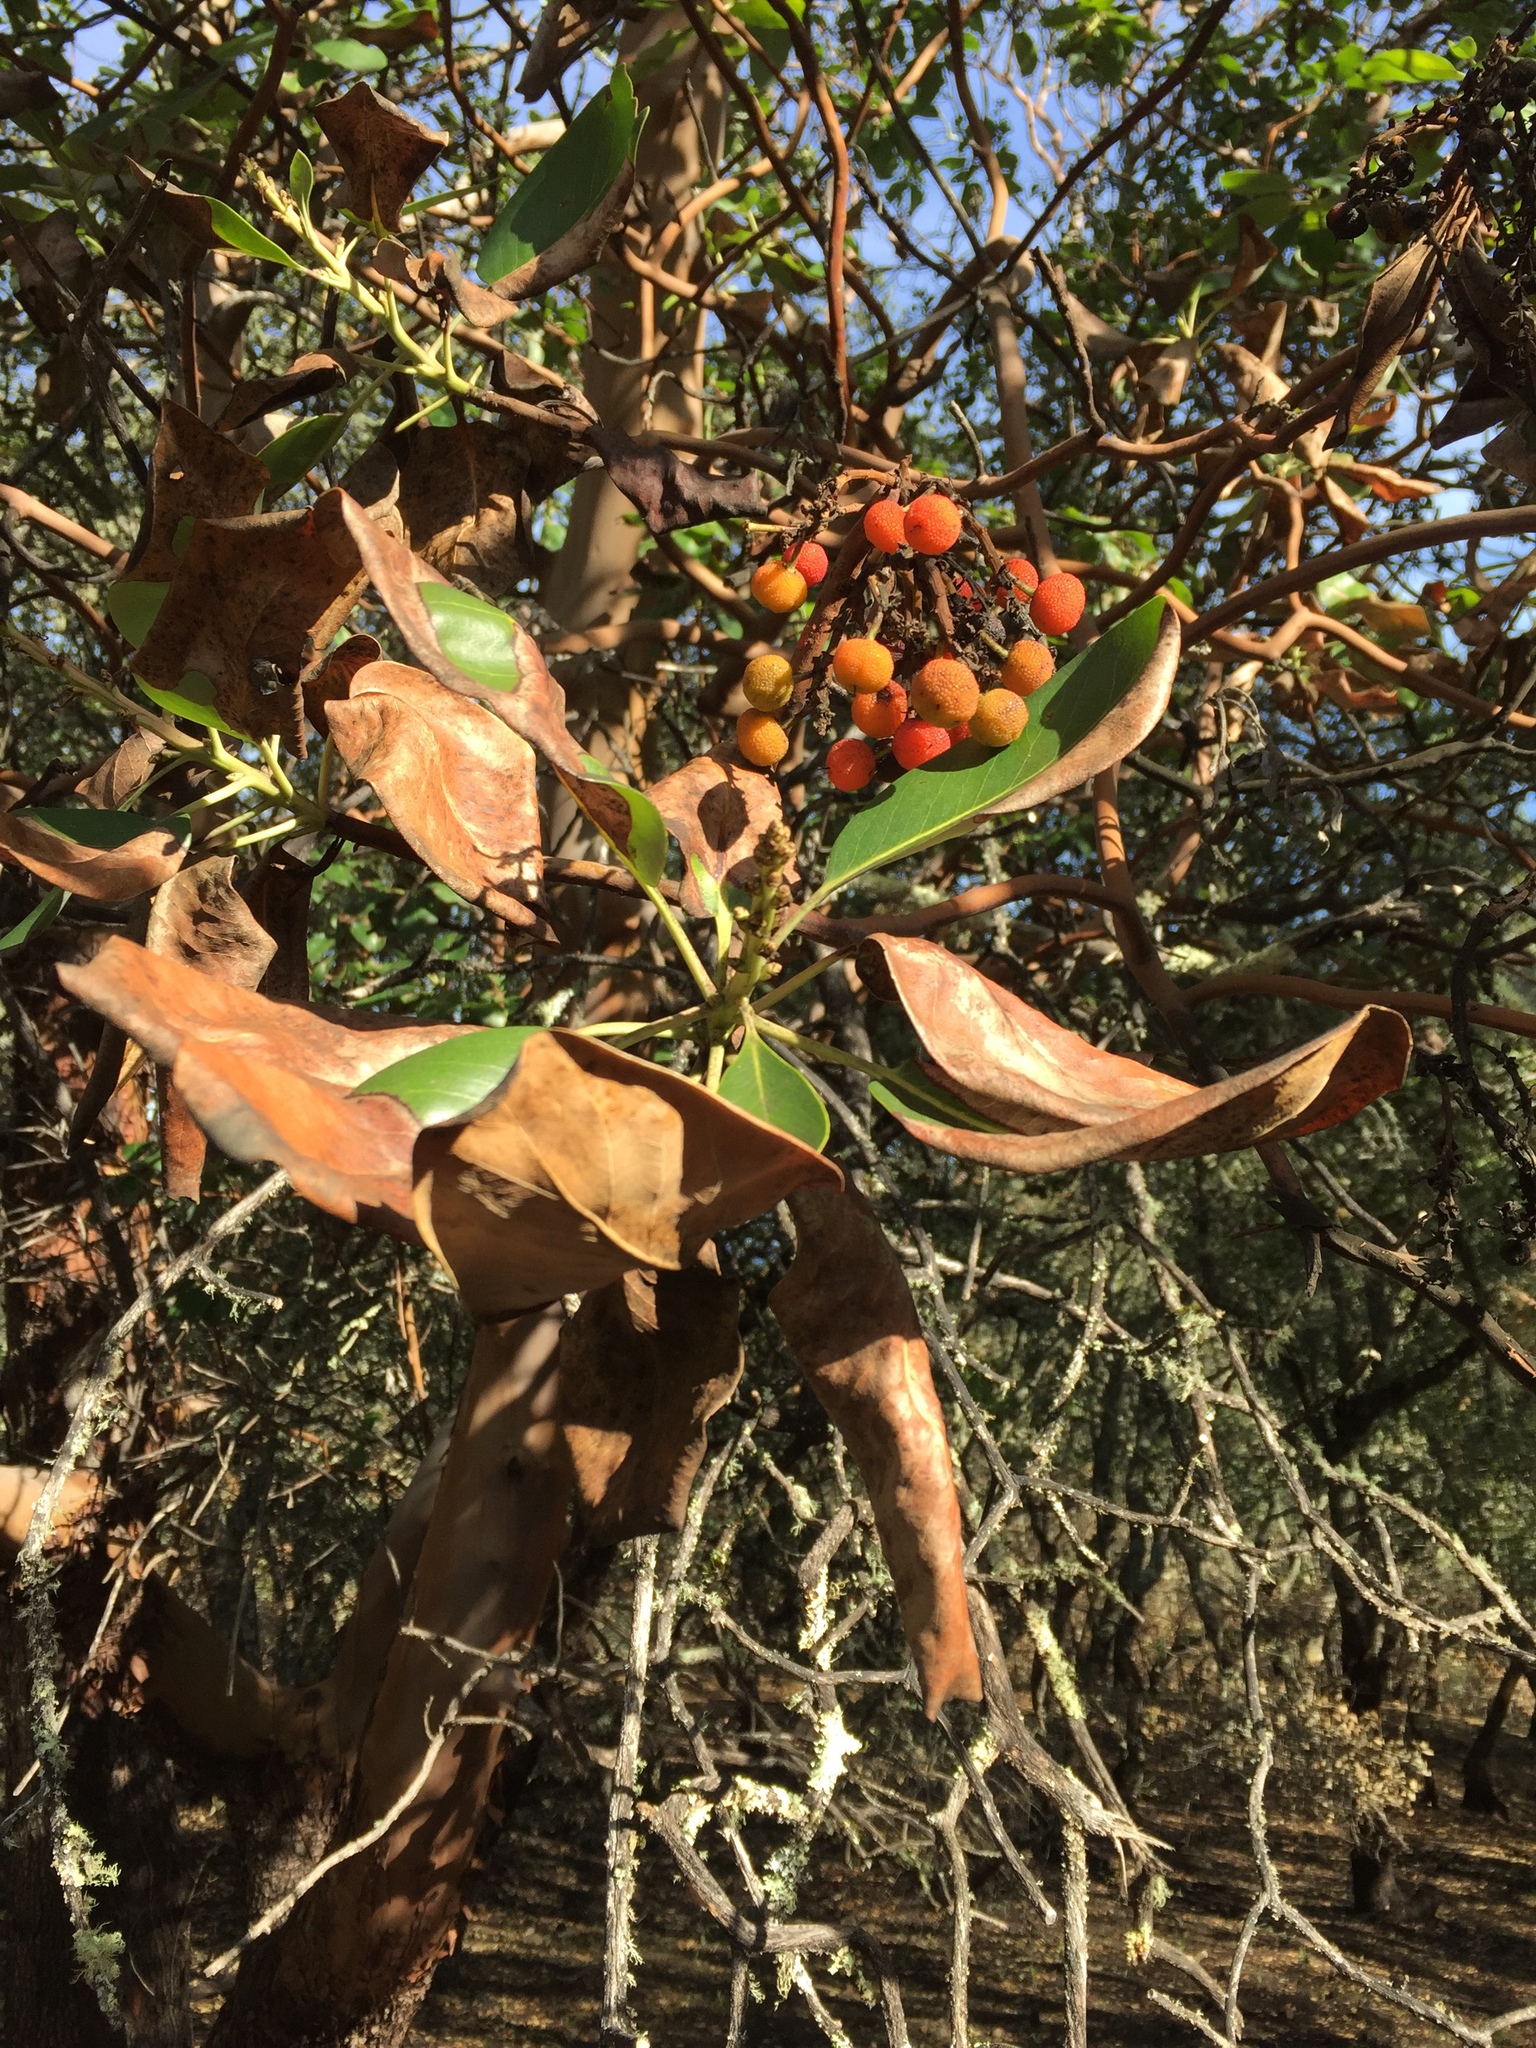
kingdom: Plantae
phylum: Tracheophyta
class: Magnoliopsida
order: Ericales
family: Ericaceae
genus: Arbutus
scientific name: Arbutus menziesii
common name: Pacific madrone
